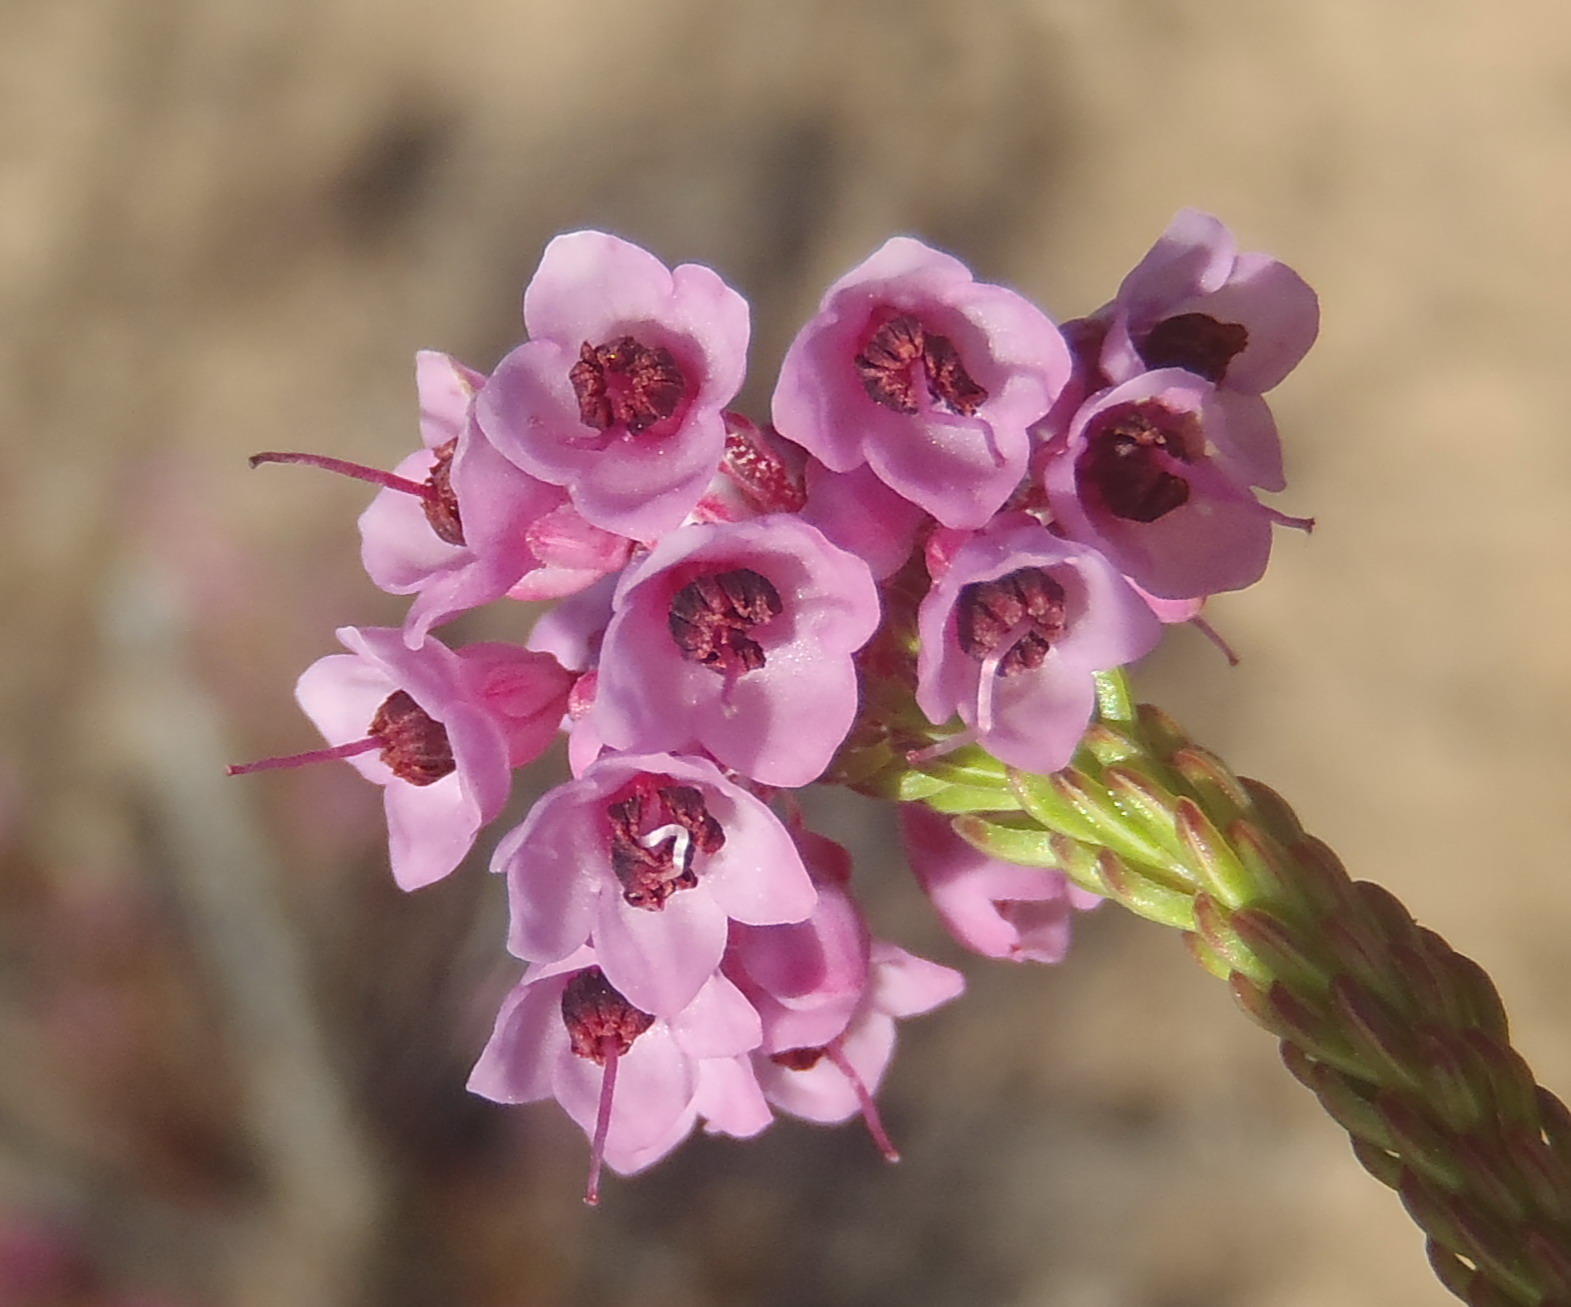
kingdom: Plantae
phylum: Tracheophyta
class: Magnoliopsida
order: Ericales
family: Ericaceae
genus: Erica
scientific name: Erica seriphiifolia
